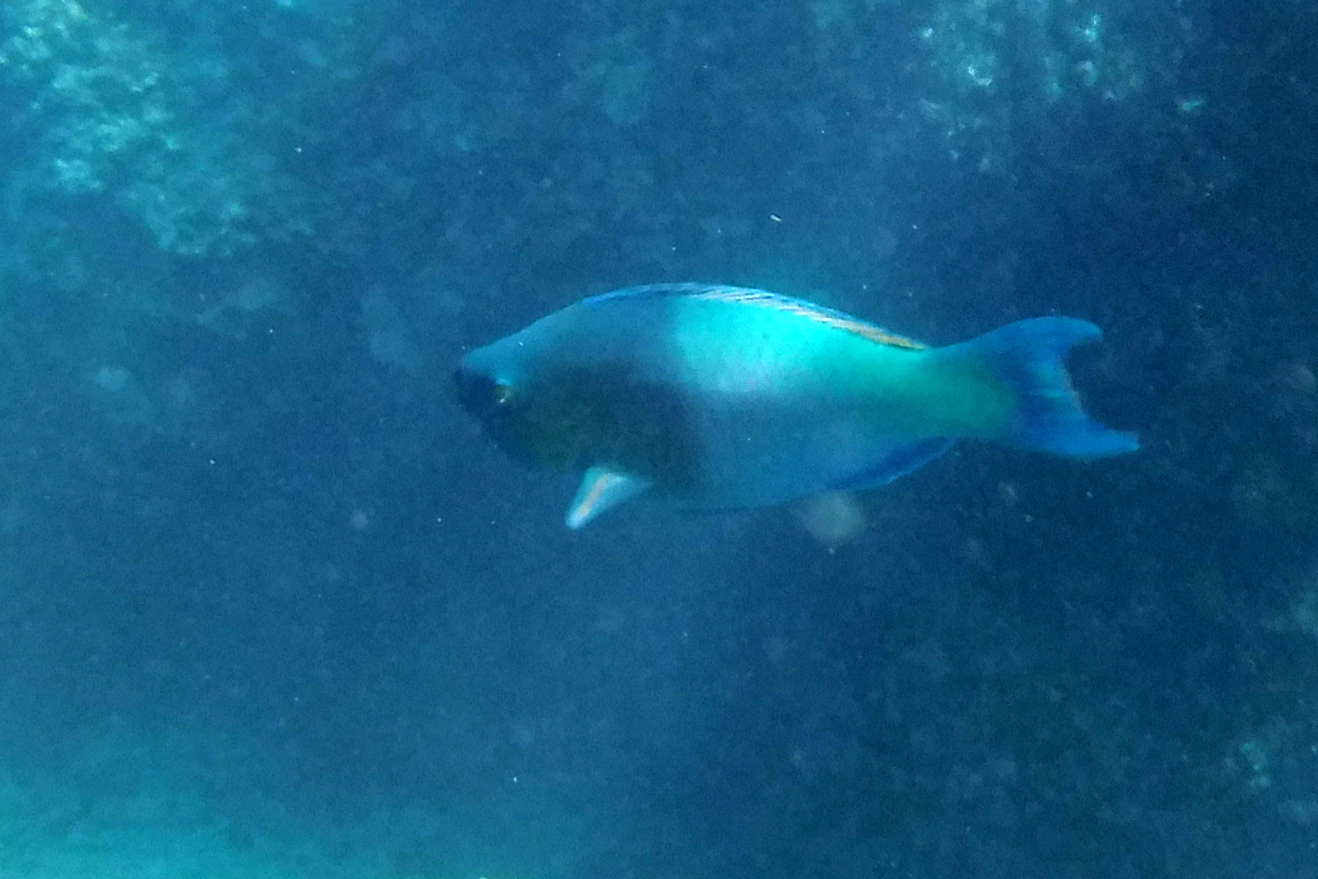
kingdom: Animalia
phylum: Chordata
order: Perciformes
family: Scaridae
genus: Scarus
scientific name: Scarus rubroviolaceus
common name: Ember parrotfish
